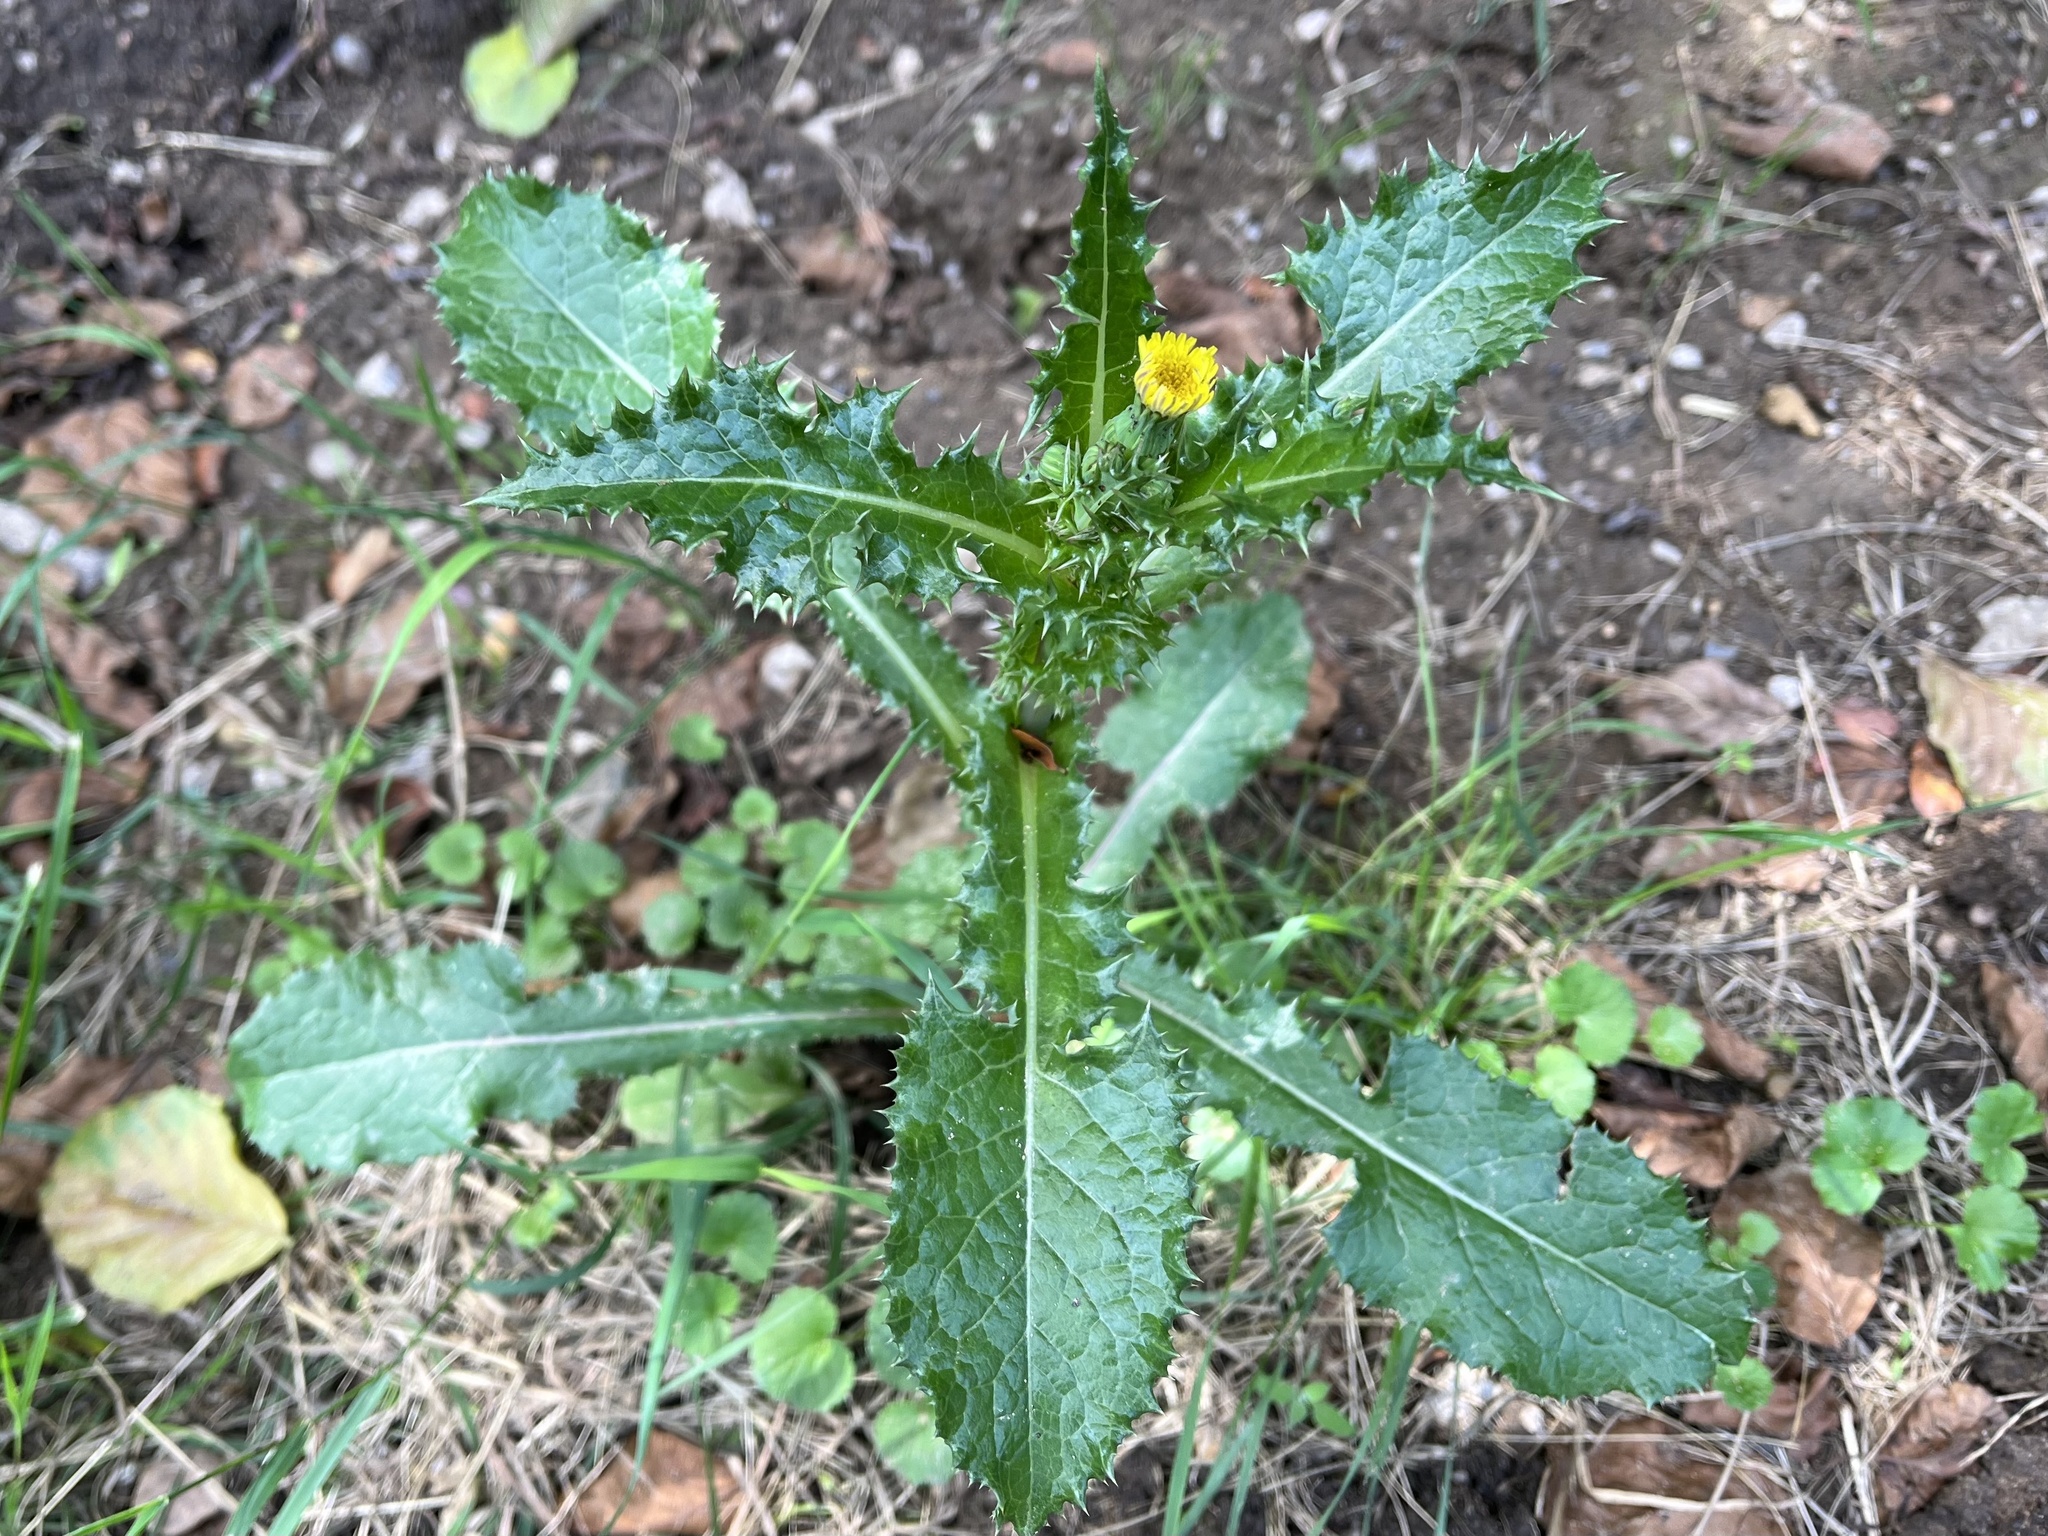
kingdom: Plantae
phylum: Tracheophyta
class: Magnoliopsida
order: Asterales
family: Asteraceae
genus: Sonchus
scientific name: Sonchus asper
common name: Prickly sow-thistle
